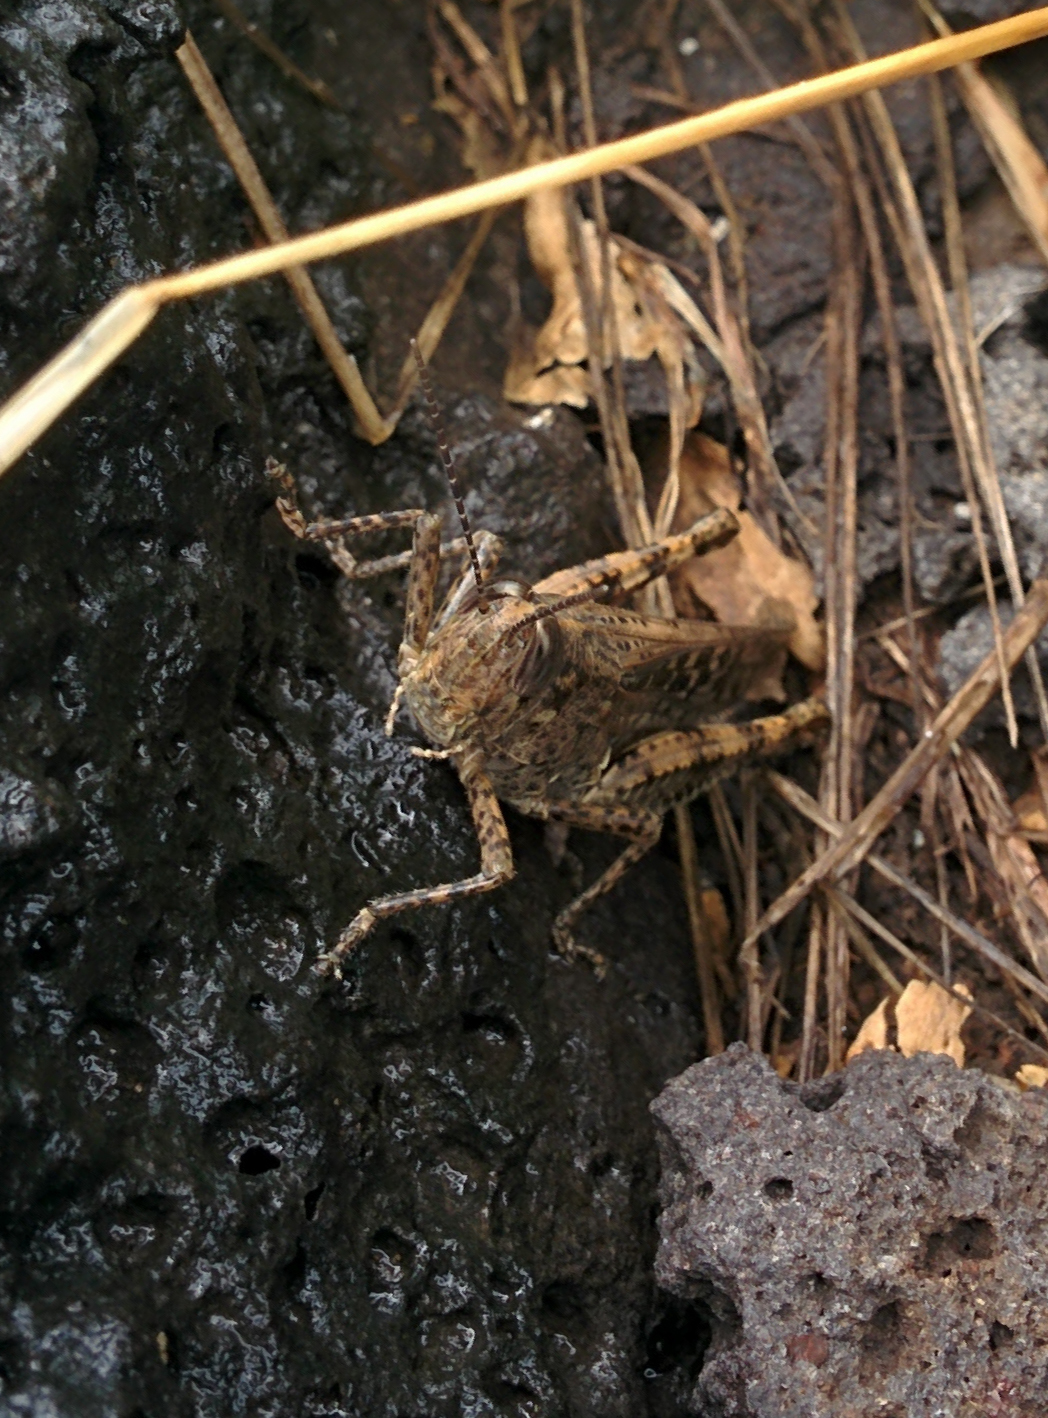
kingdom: Animalia
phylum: Arthropoda
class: Insecta
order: Orthoptera
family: Acrididae
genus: Schistocerca
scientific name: Schistocerca literosa
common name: Small painted locust
